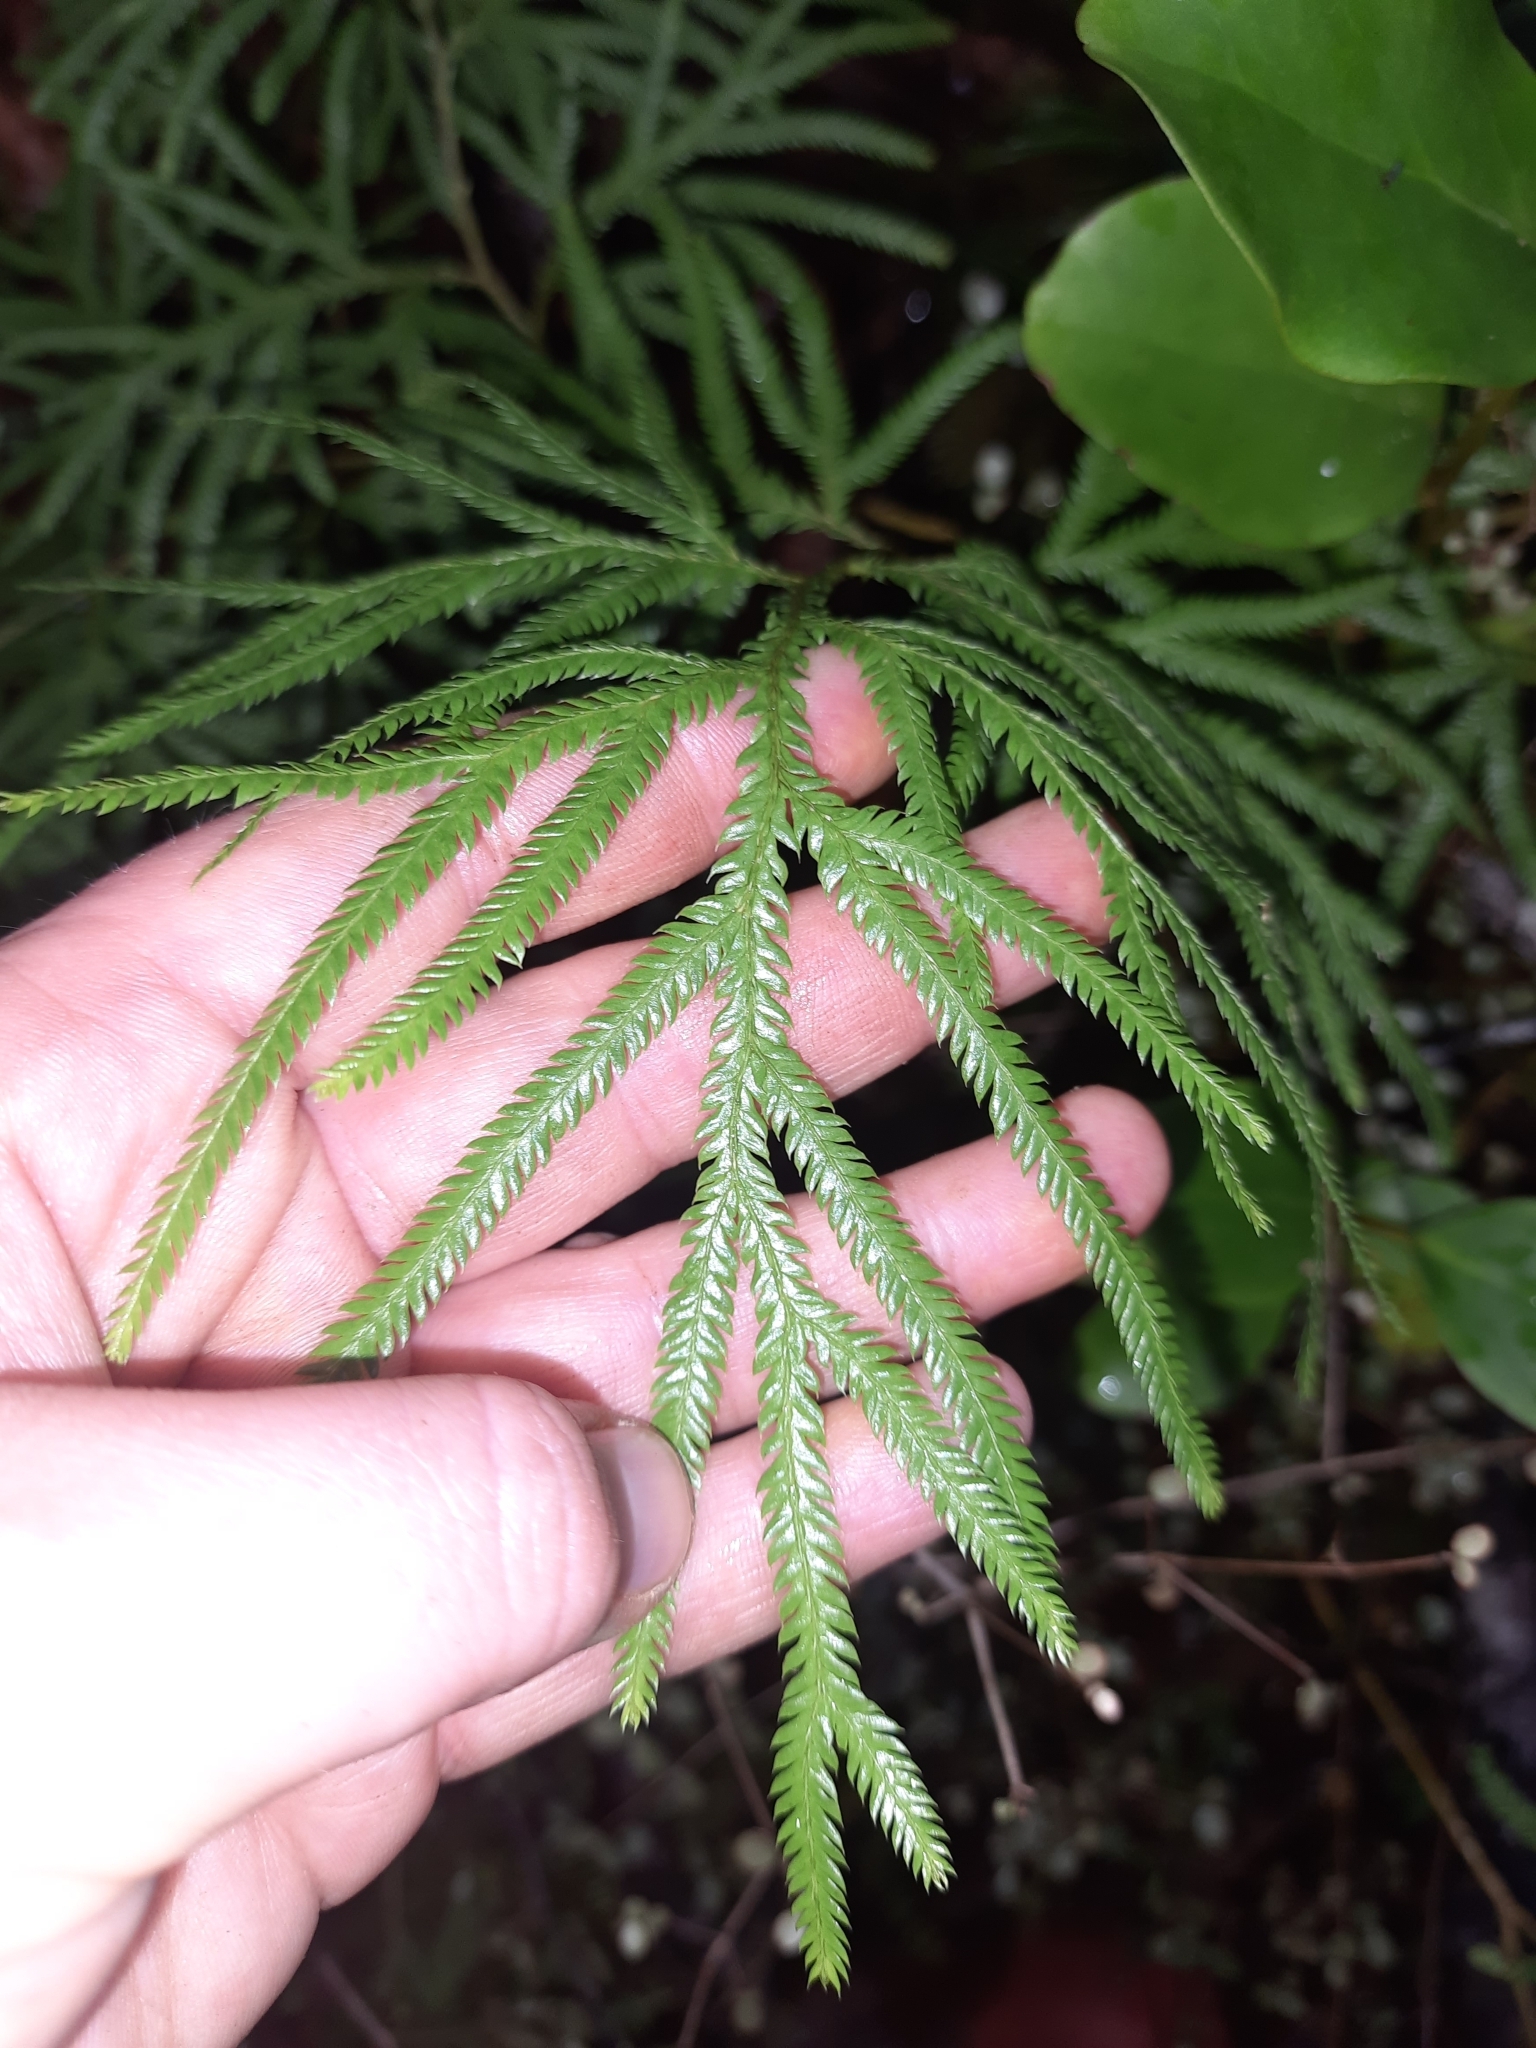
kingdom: Plantae
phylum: Tracheophyta
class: Lycopodiopsida
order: Lycopodiales
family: Lycopodiaceae
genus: Lycopodium
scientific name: Lycopodium volubile
